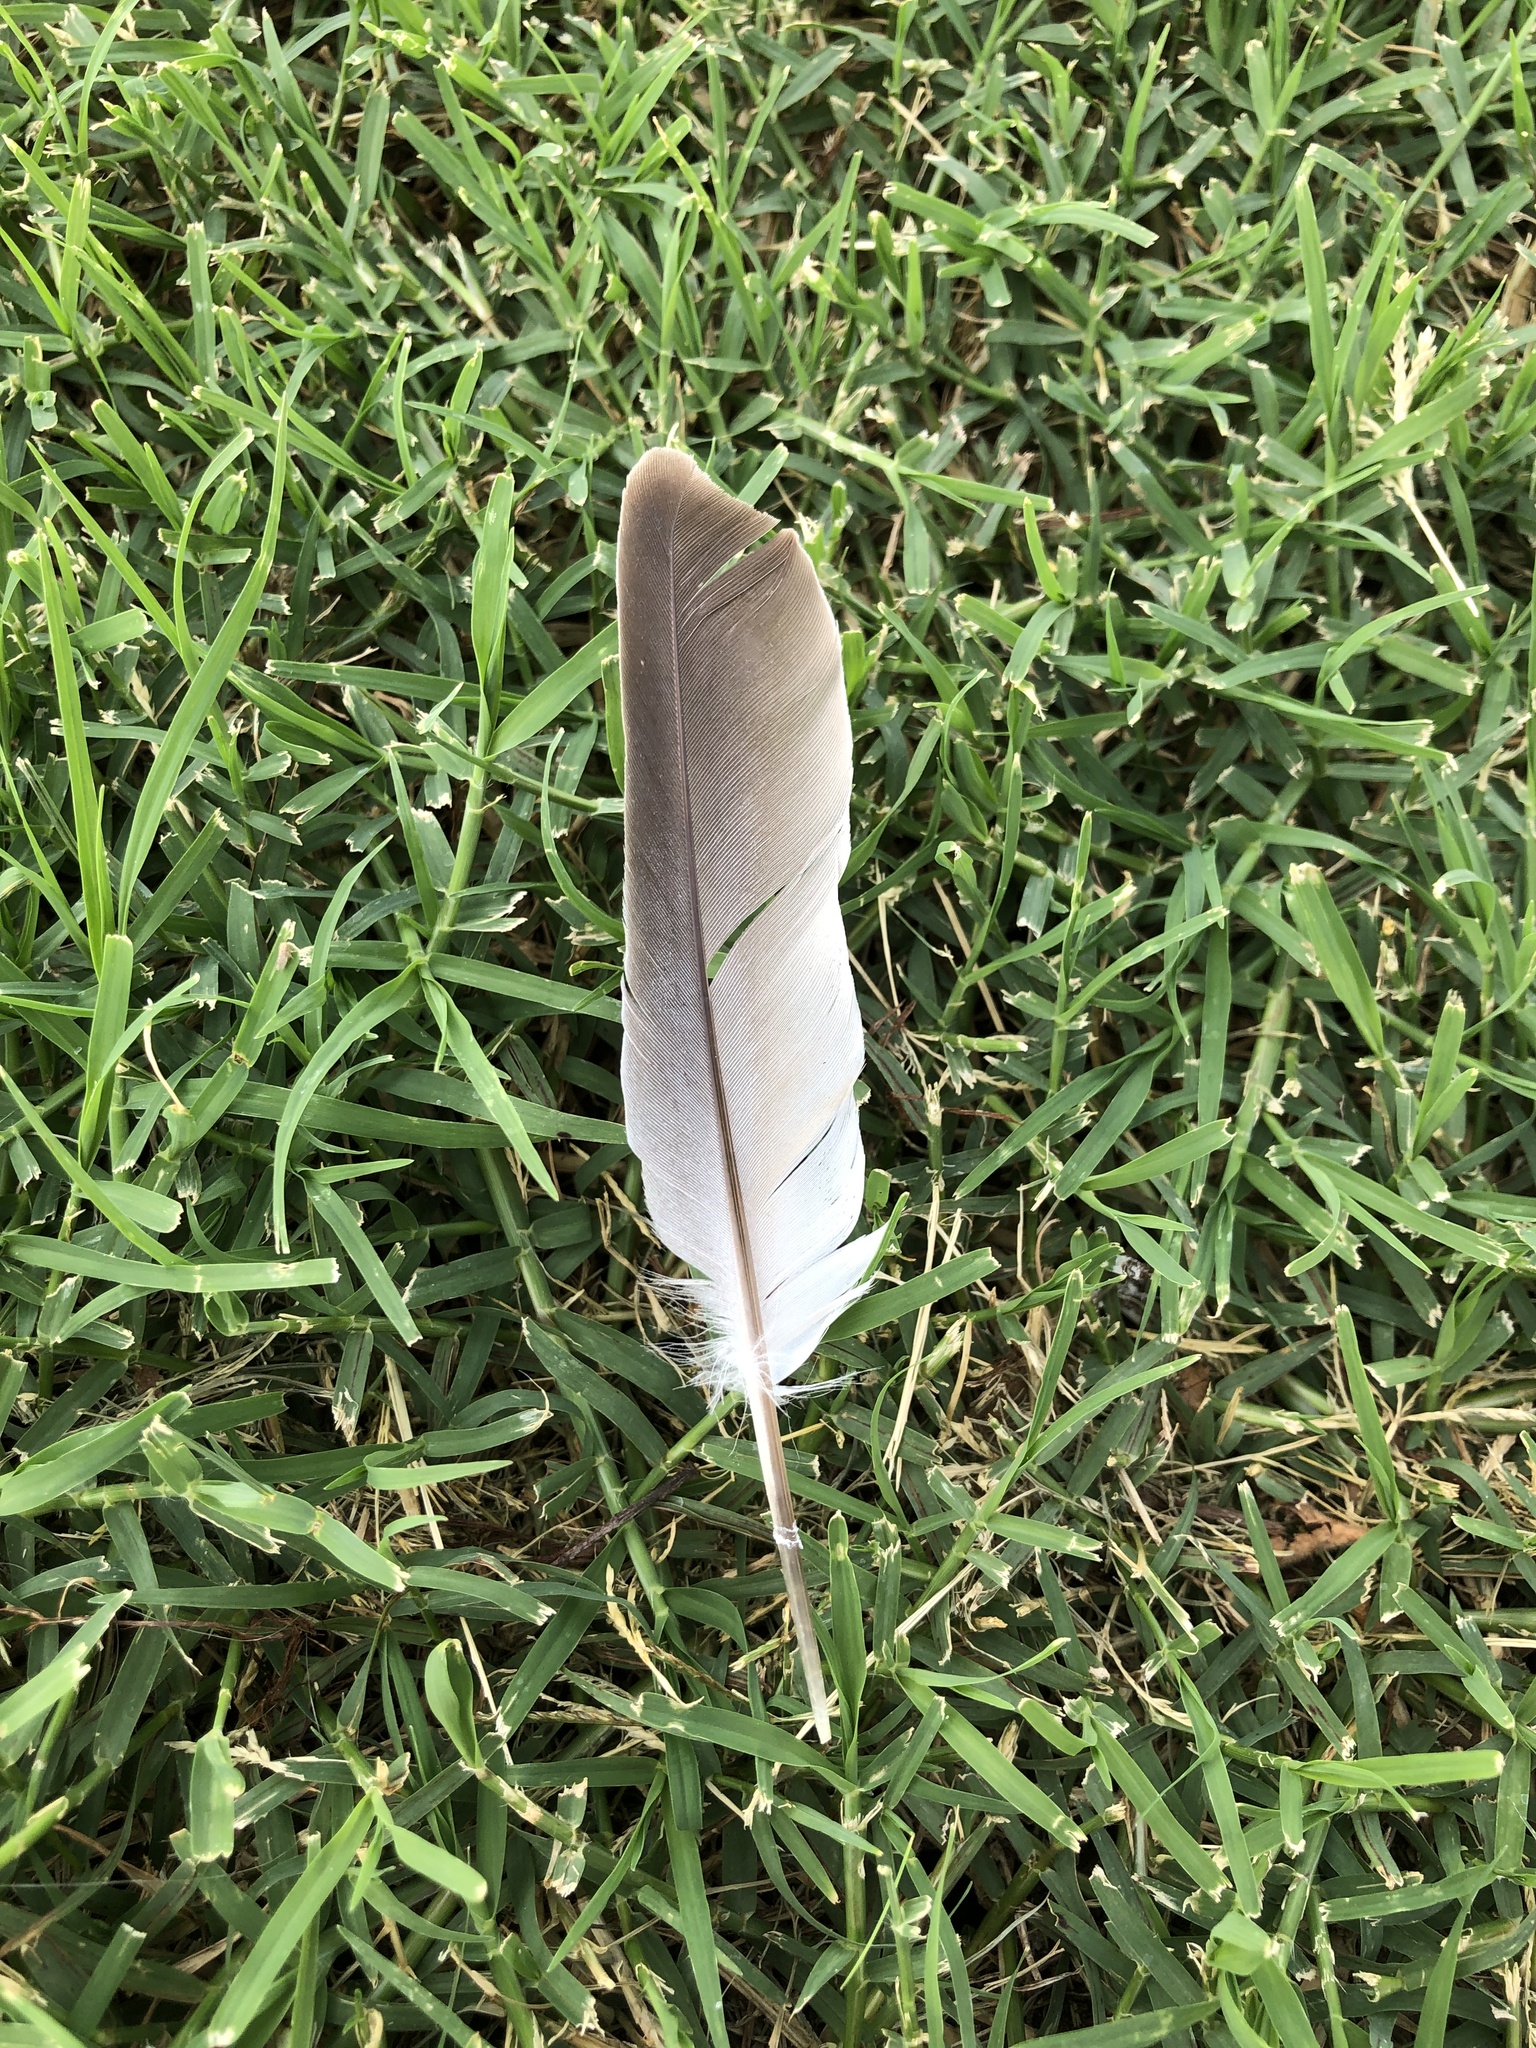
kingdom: Animalia
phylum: Chordata
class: Aves
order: Columbiformes
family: Columbidae
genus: Streptopelia
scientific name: Streptopelia decaocto
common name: Eurasian collared dove
